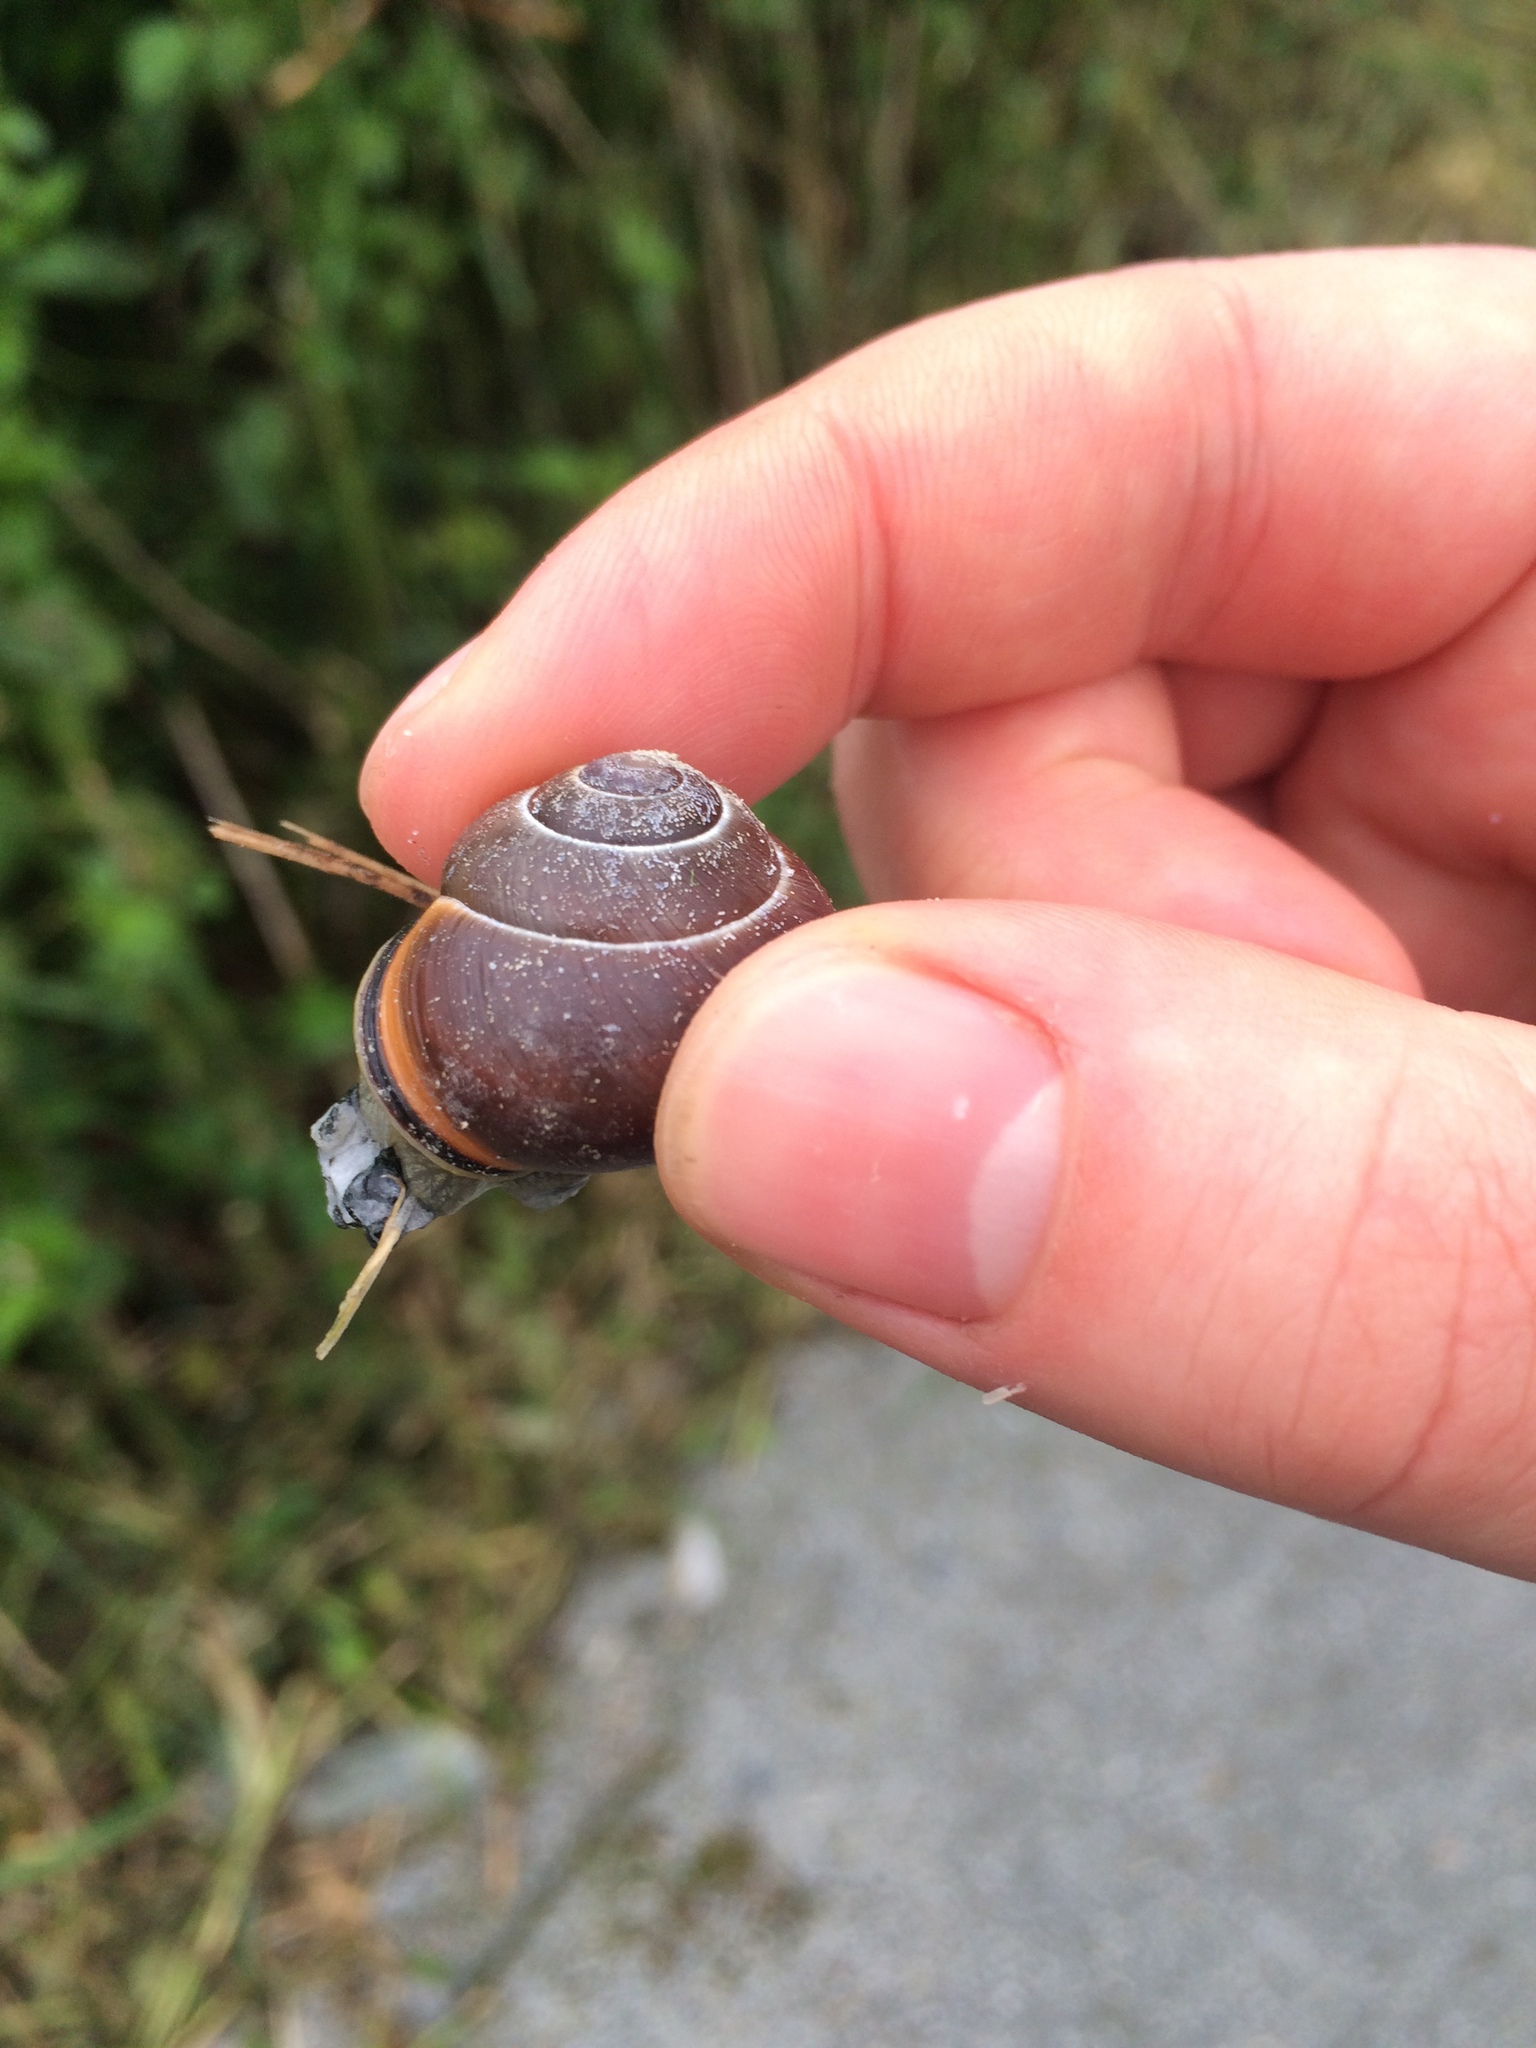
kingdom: Animalia
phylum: Mollusca
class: Gastropoda
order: Stylommatophora
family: Helicidae
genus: Cepaea
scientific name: Cepaea nemoralis
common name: Grovesnail
